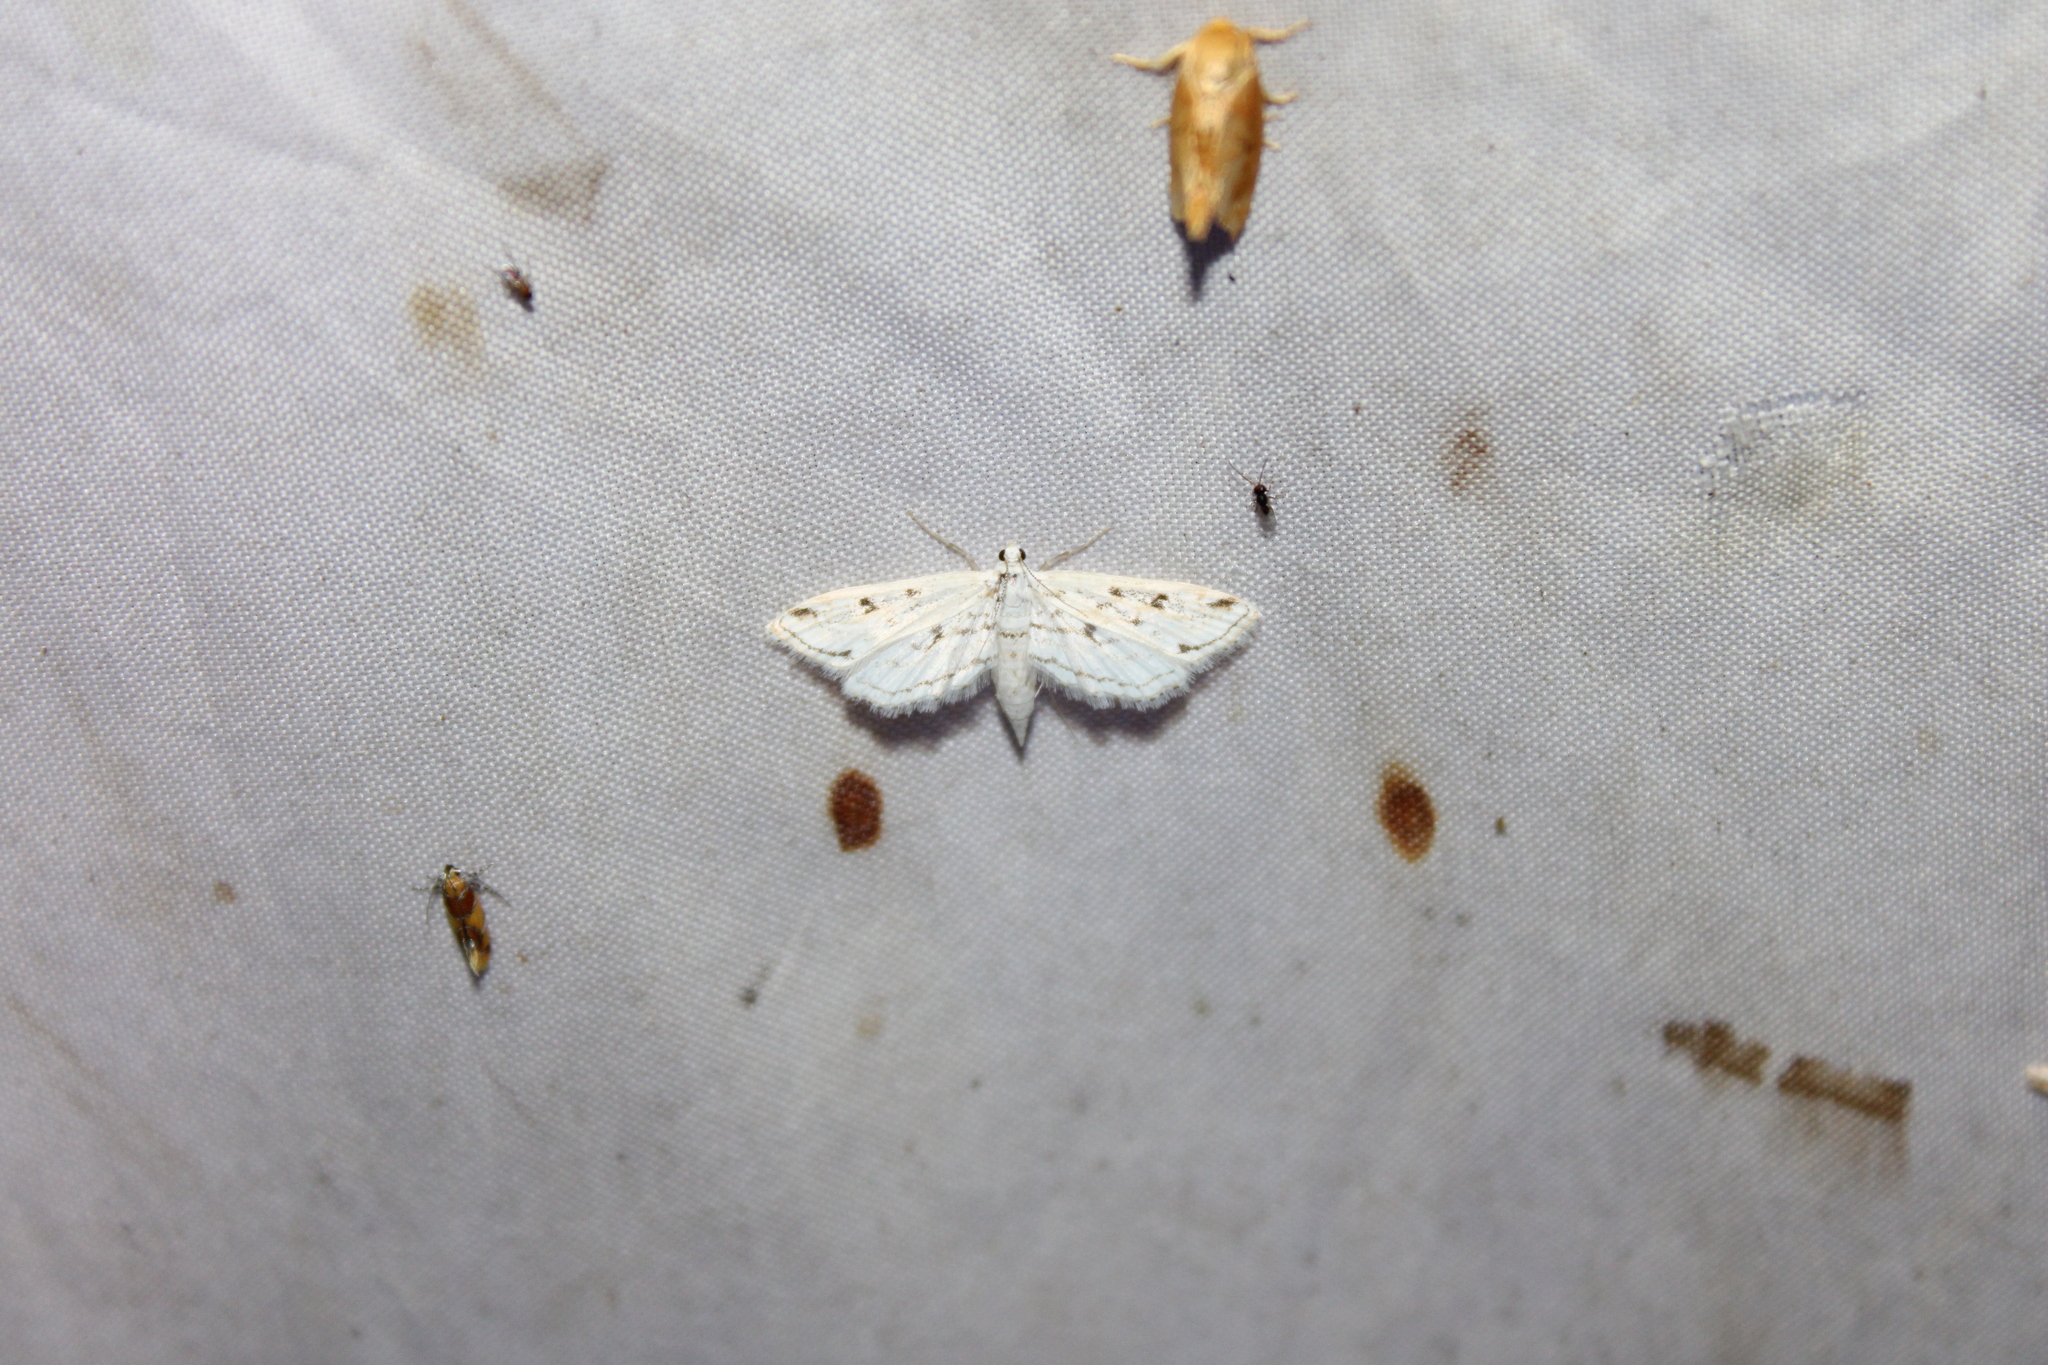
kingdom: Animalia
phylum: Arthropoda
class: Insecta
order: Lepidoptera
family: Crambidae
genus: Parapoynx
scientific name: Parapoynx allionealis
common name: Bladderwort casemaker
